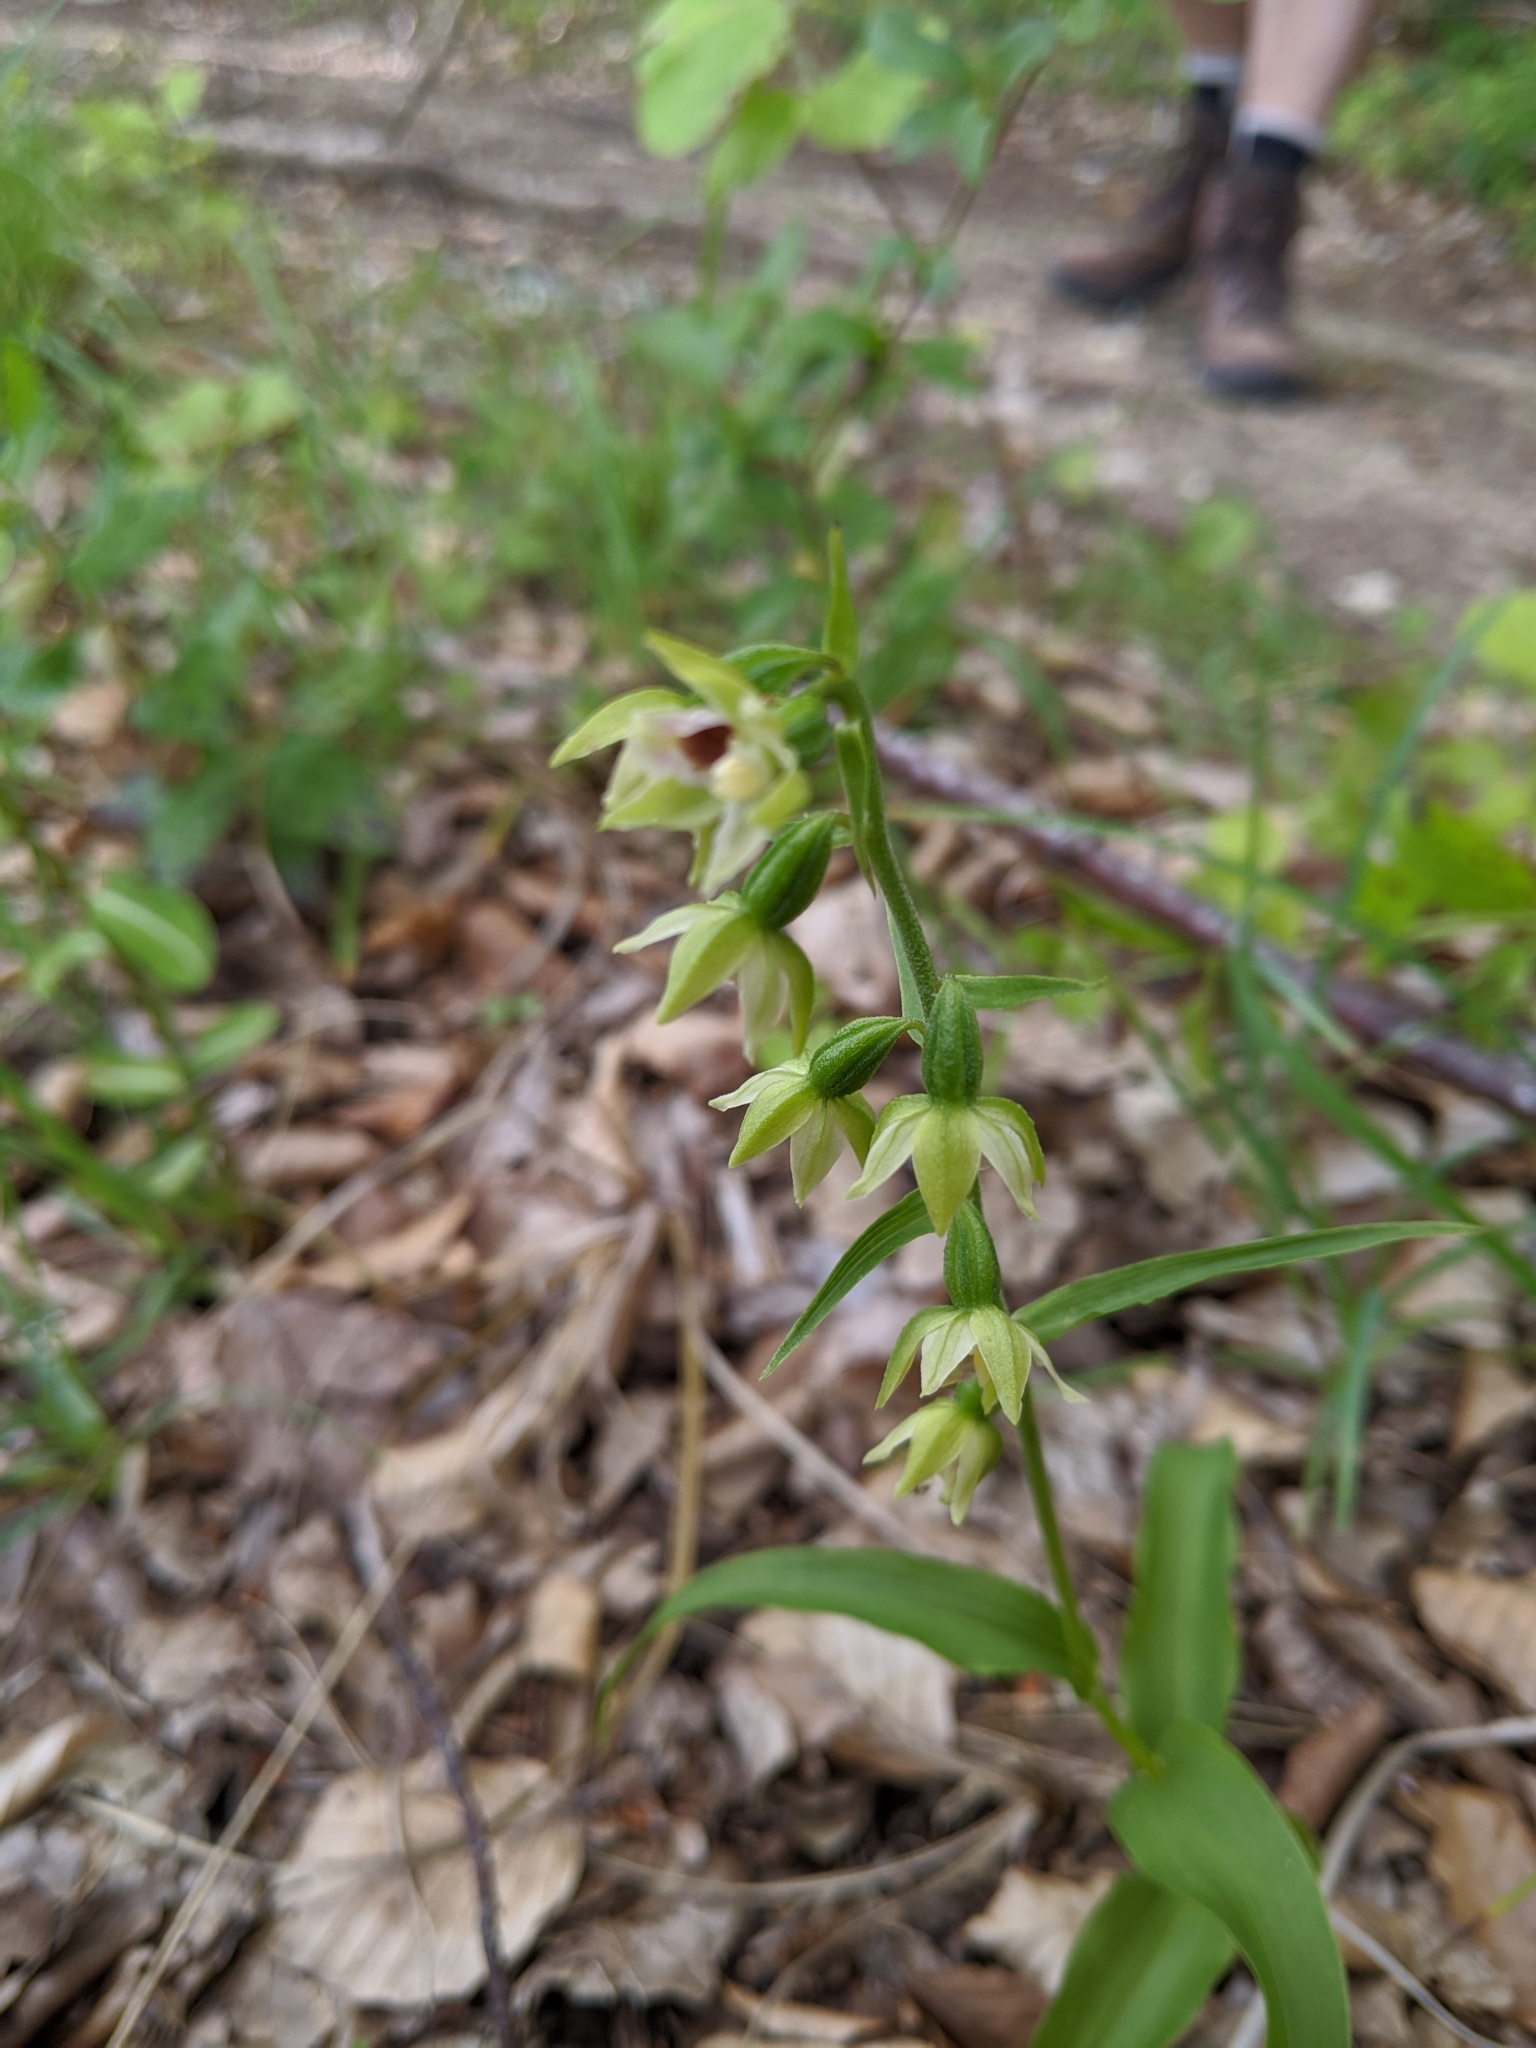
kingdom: Plantae
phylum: Tracheophyta
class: Liliopsida
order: Asparagales
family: Orchidaceae
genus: Epipactis
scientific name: Epipactis helleborine
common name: Broad-leaved helleborine
